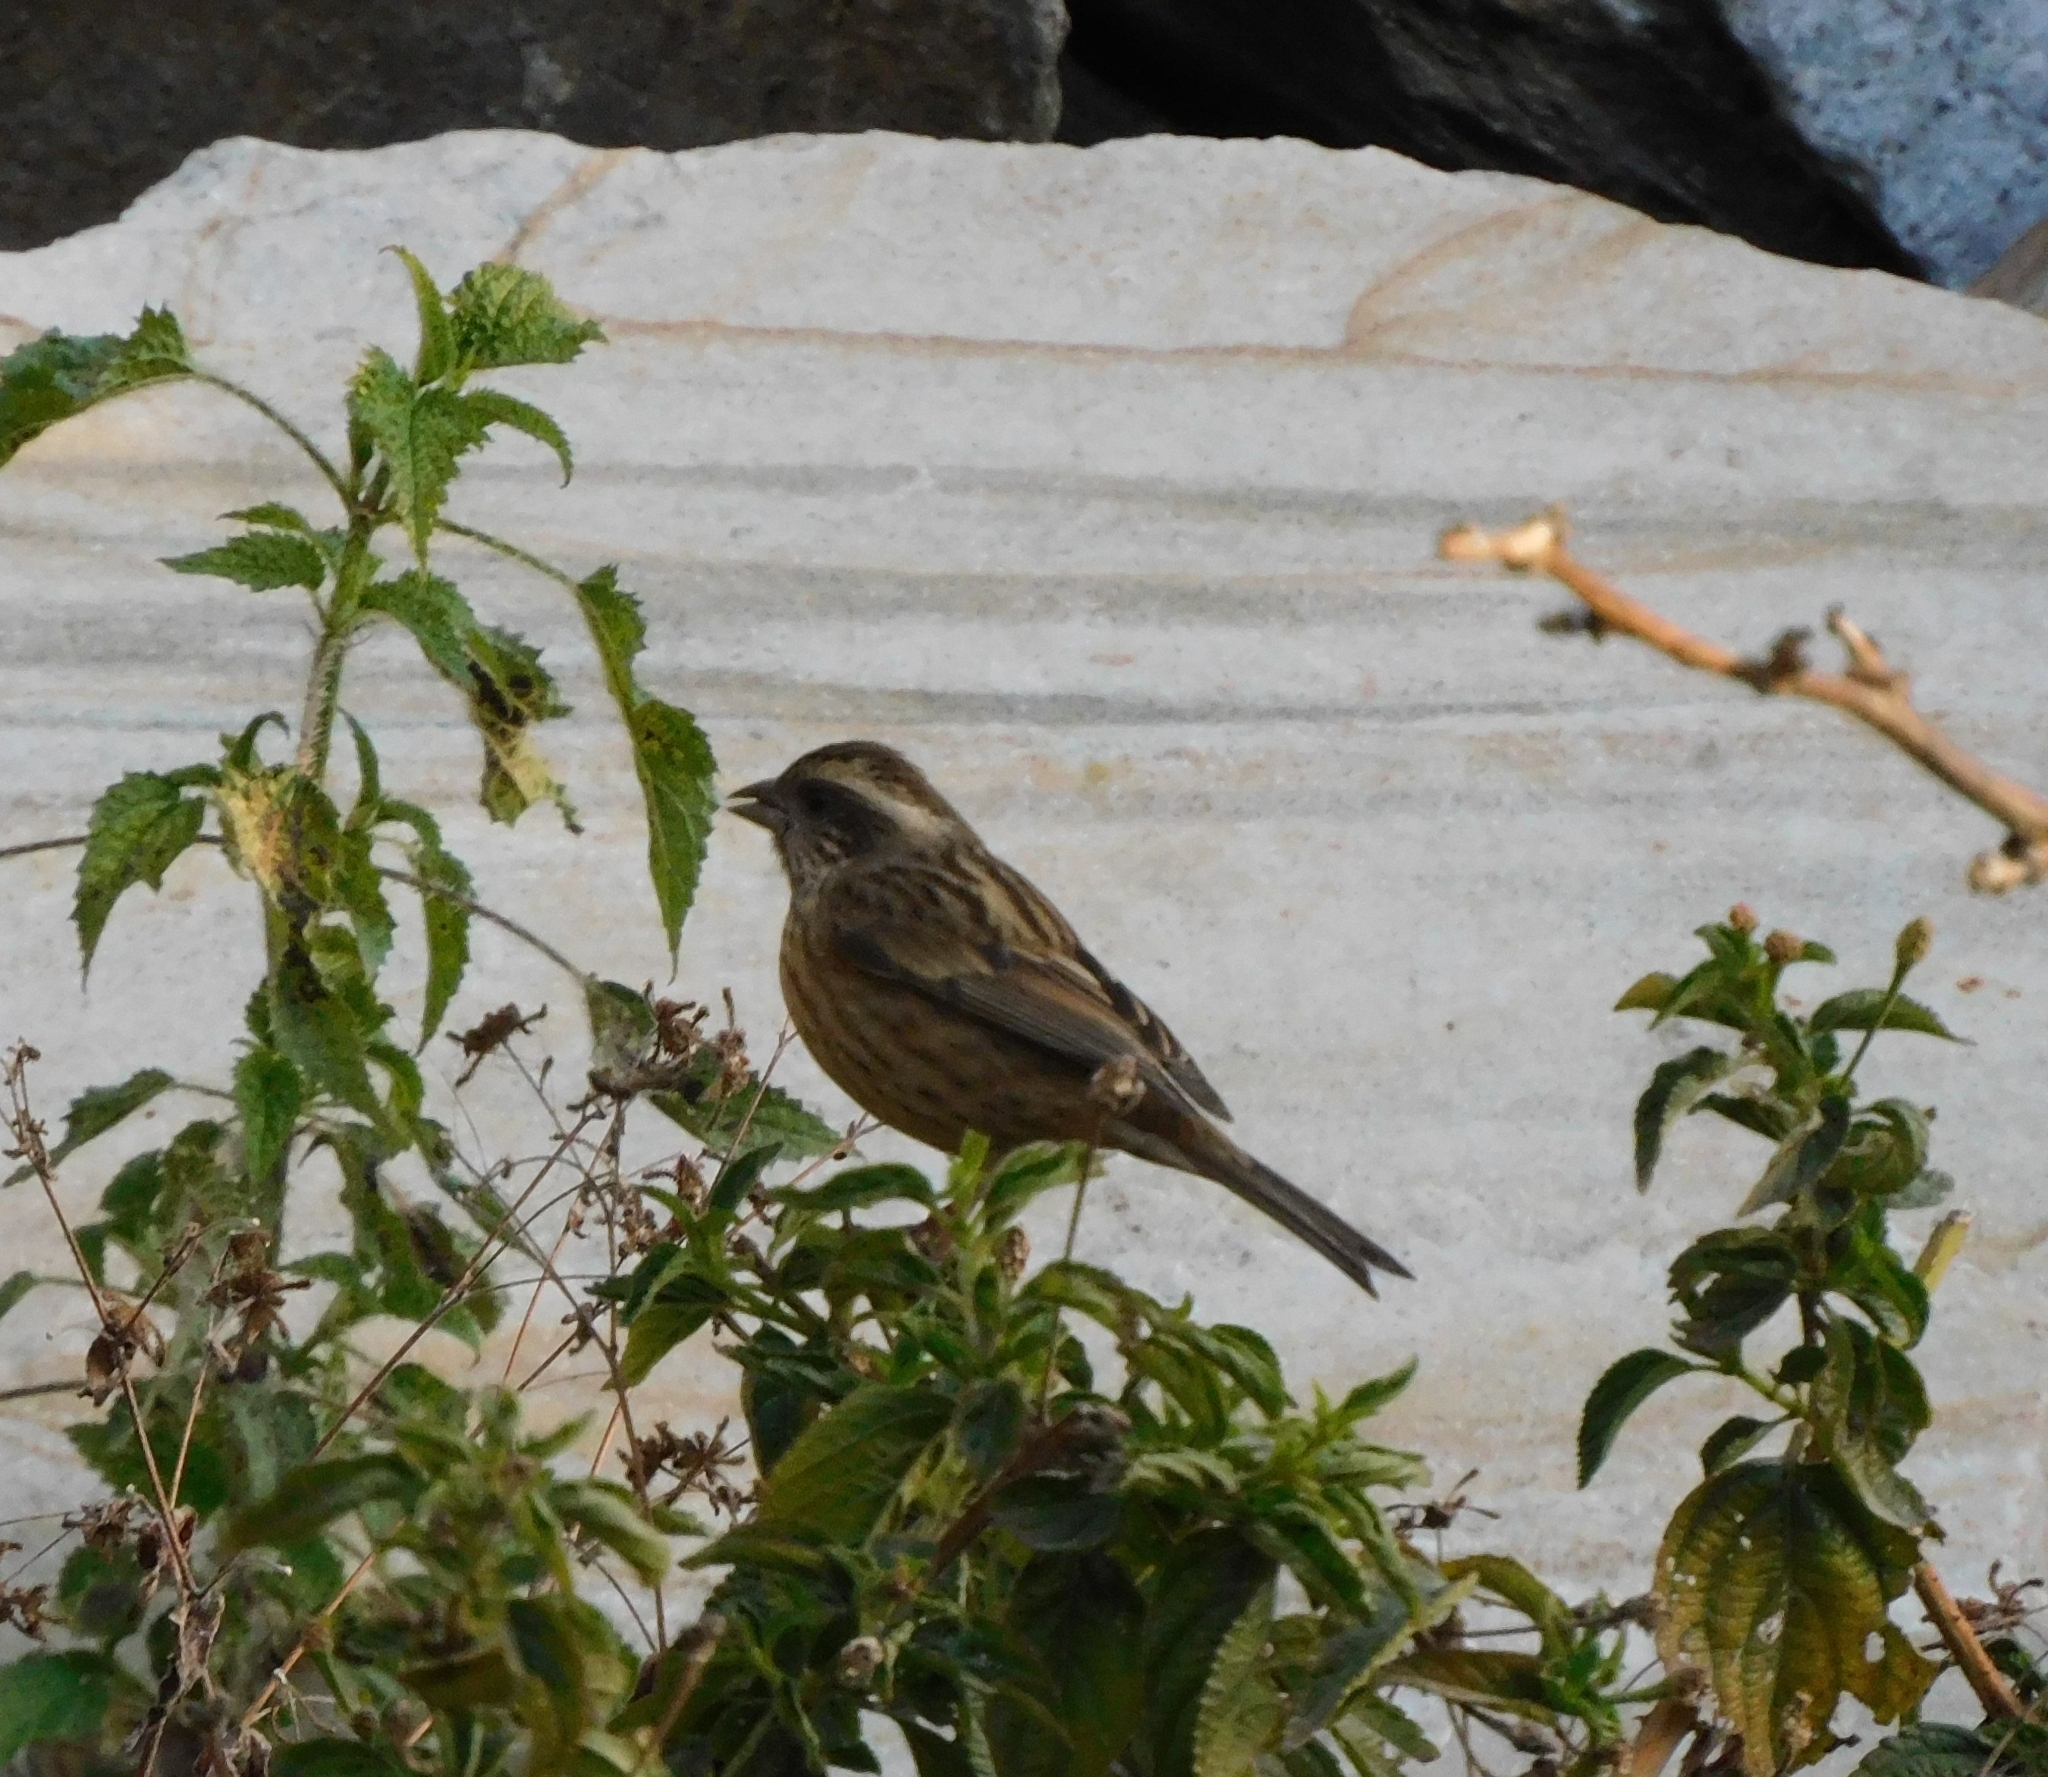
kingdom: Animalia
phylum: Chordata
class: Aves
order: Passeriformes
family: Fringillidae
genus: Carpodacus
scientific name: Carpodacus rodochroa
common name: Pink-browed rosefinch
